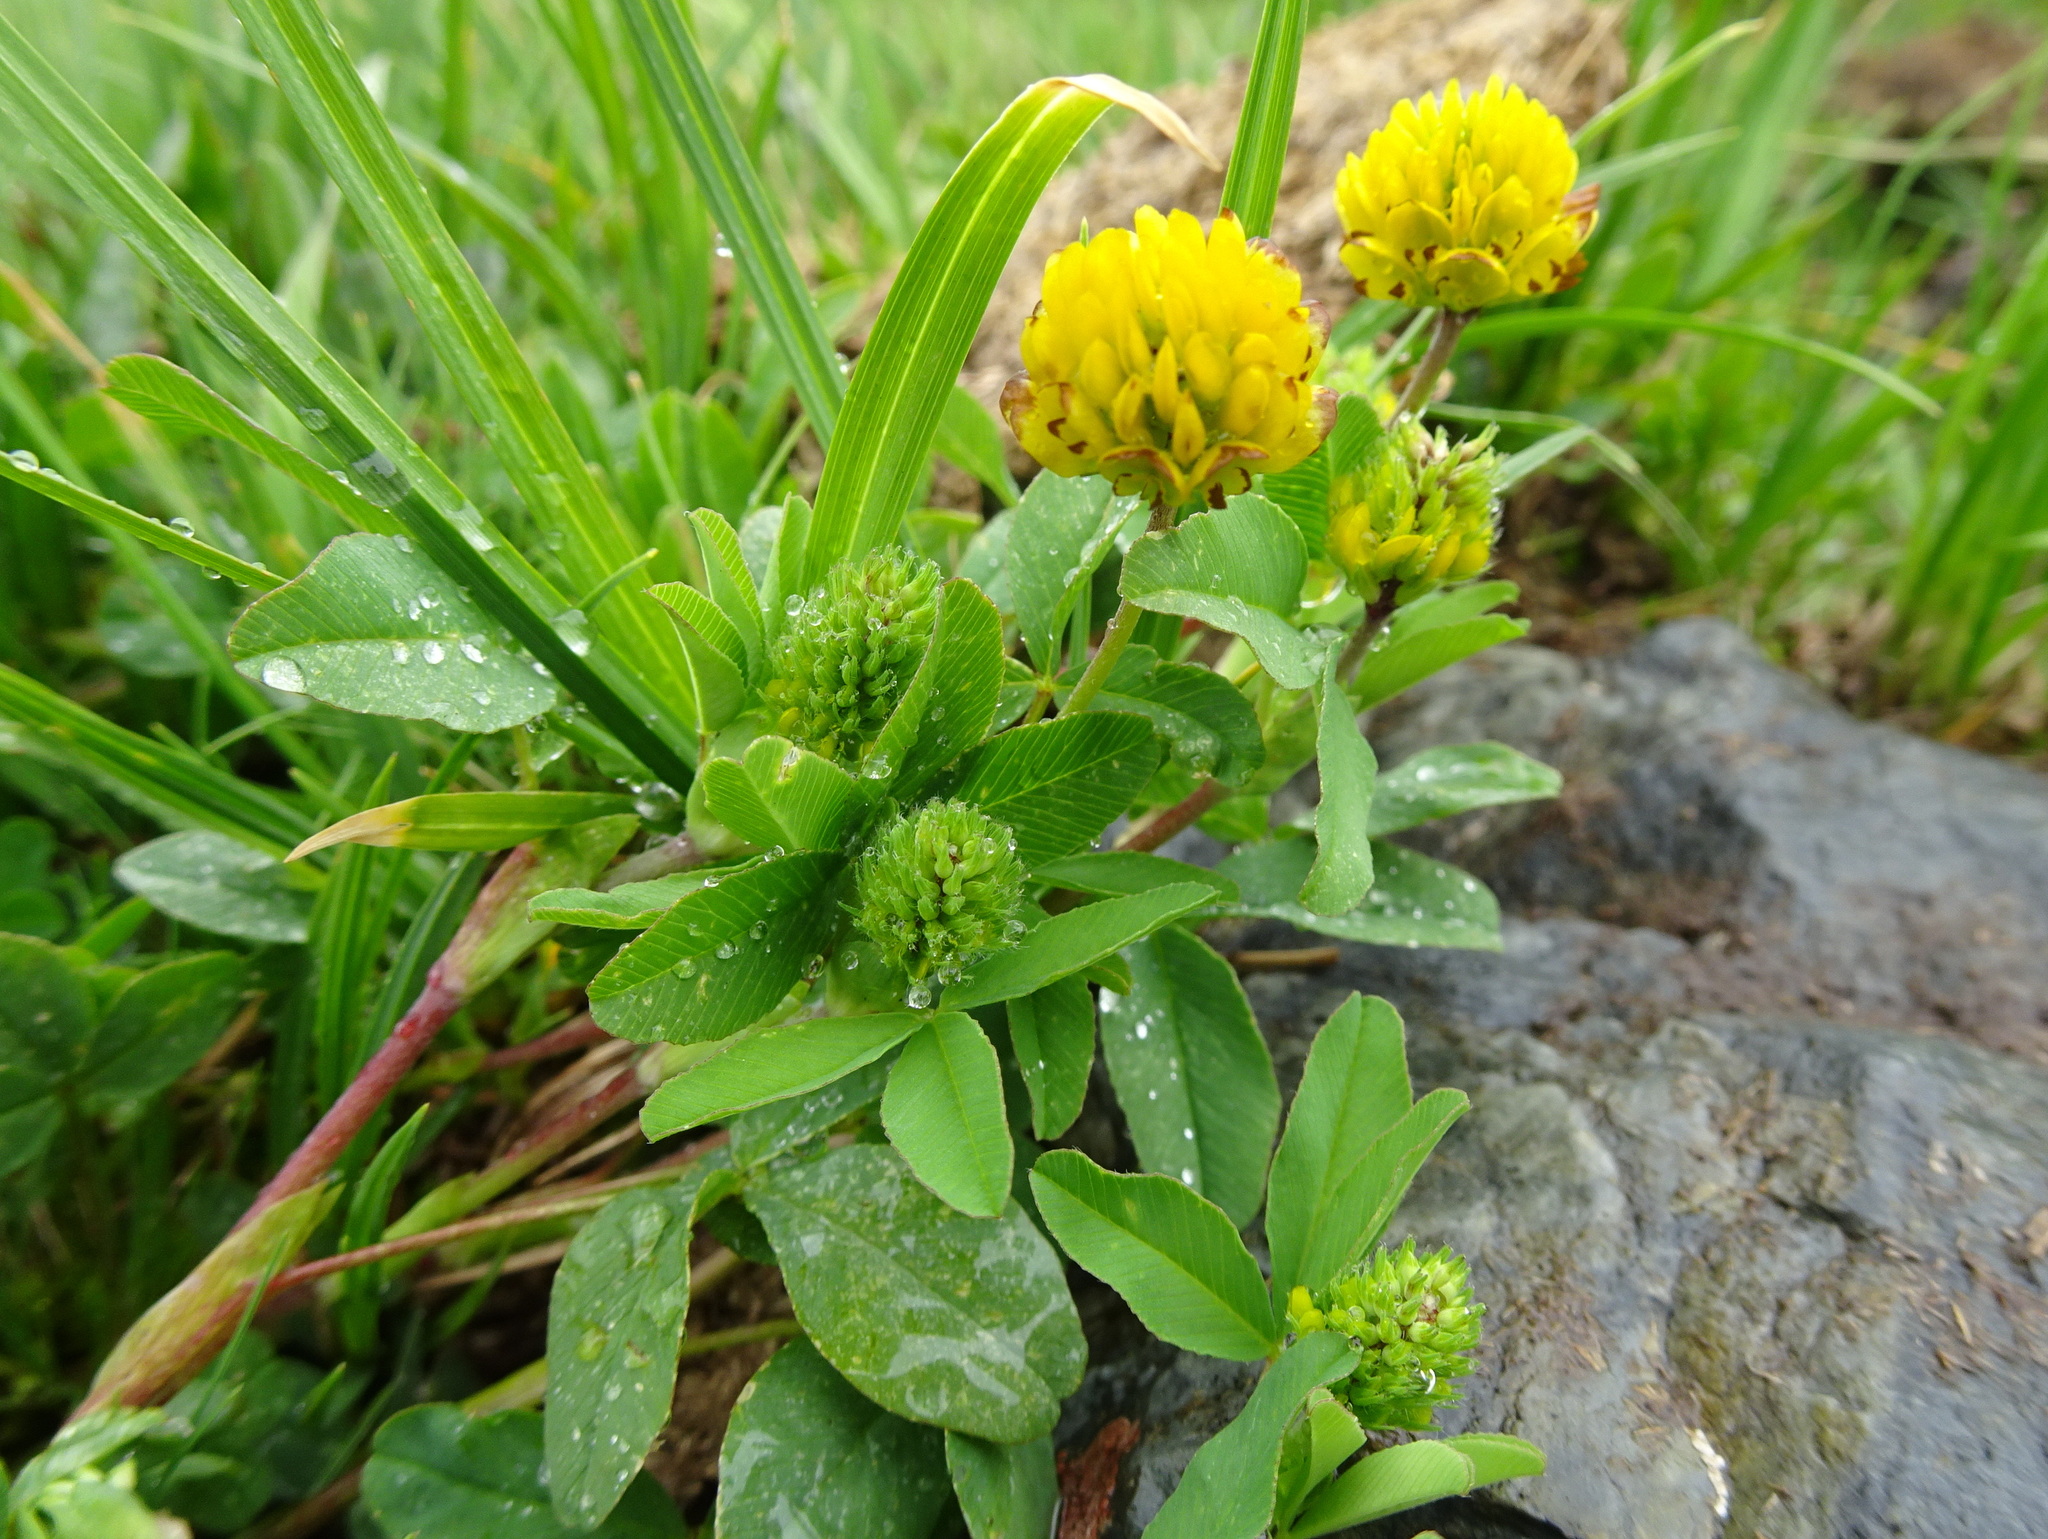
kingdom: Plantae
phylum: Tracheophyta
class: Magnoliopsida
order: Fabales
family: Fabaceae
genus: Trifolium
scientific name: Trifolium badium
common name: Brown clover
